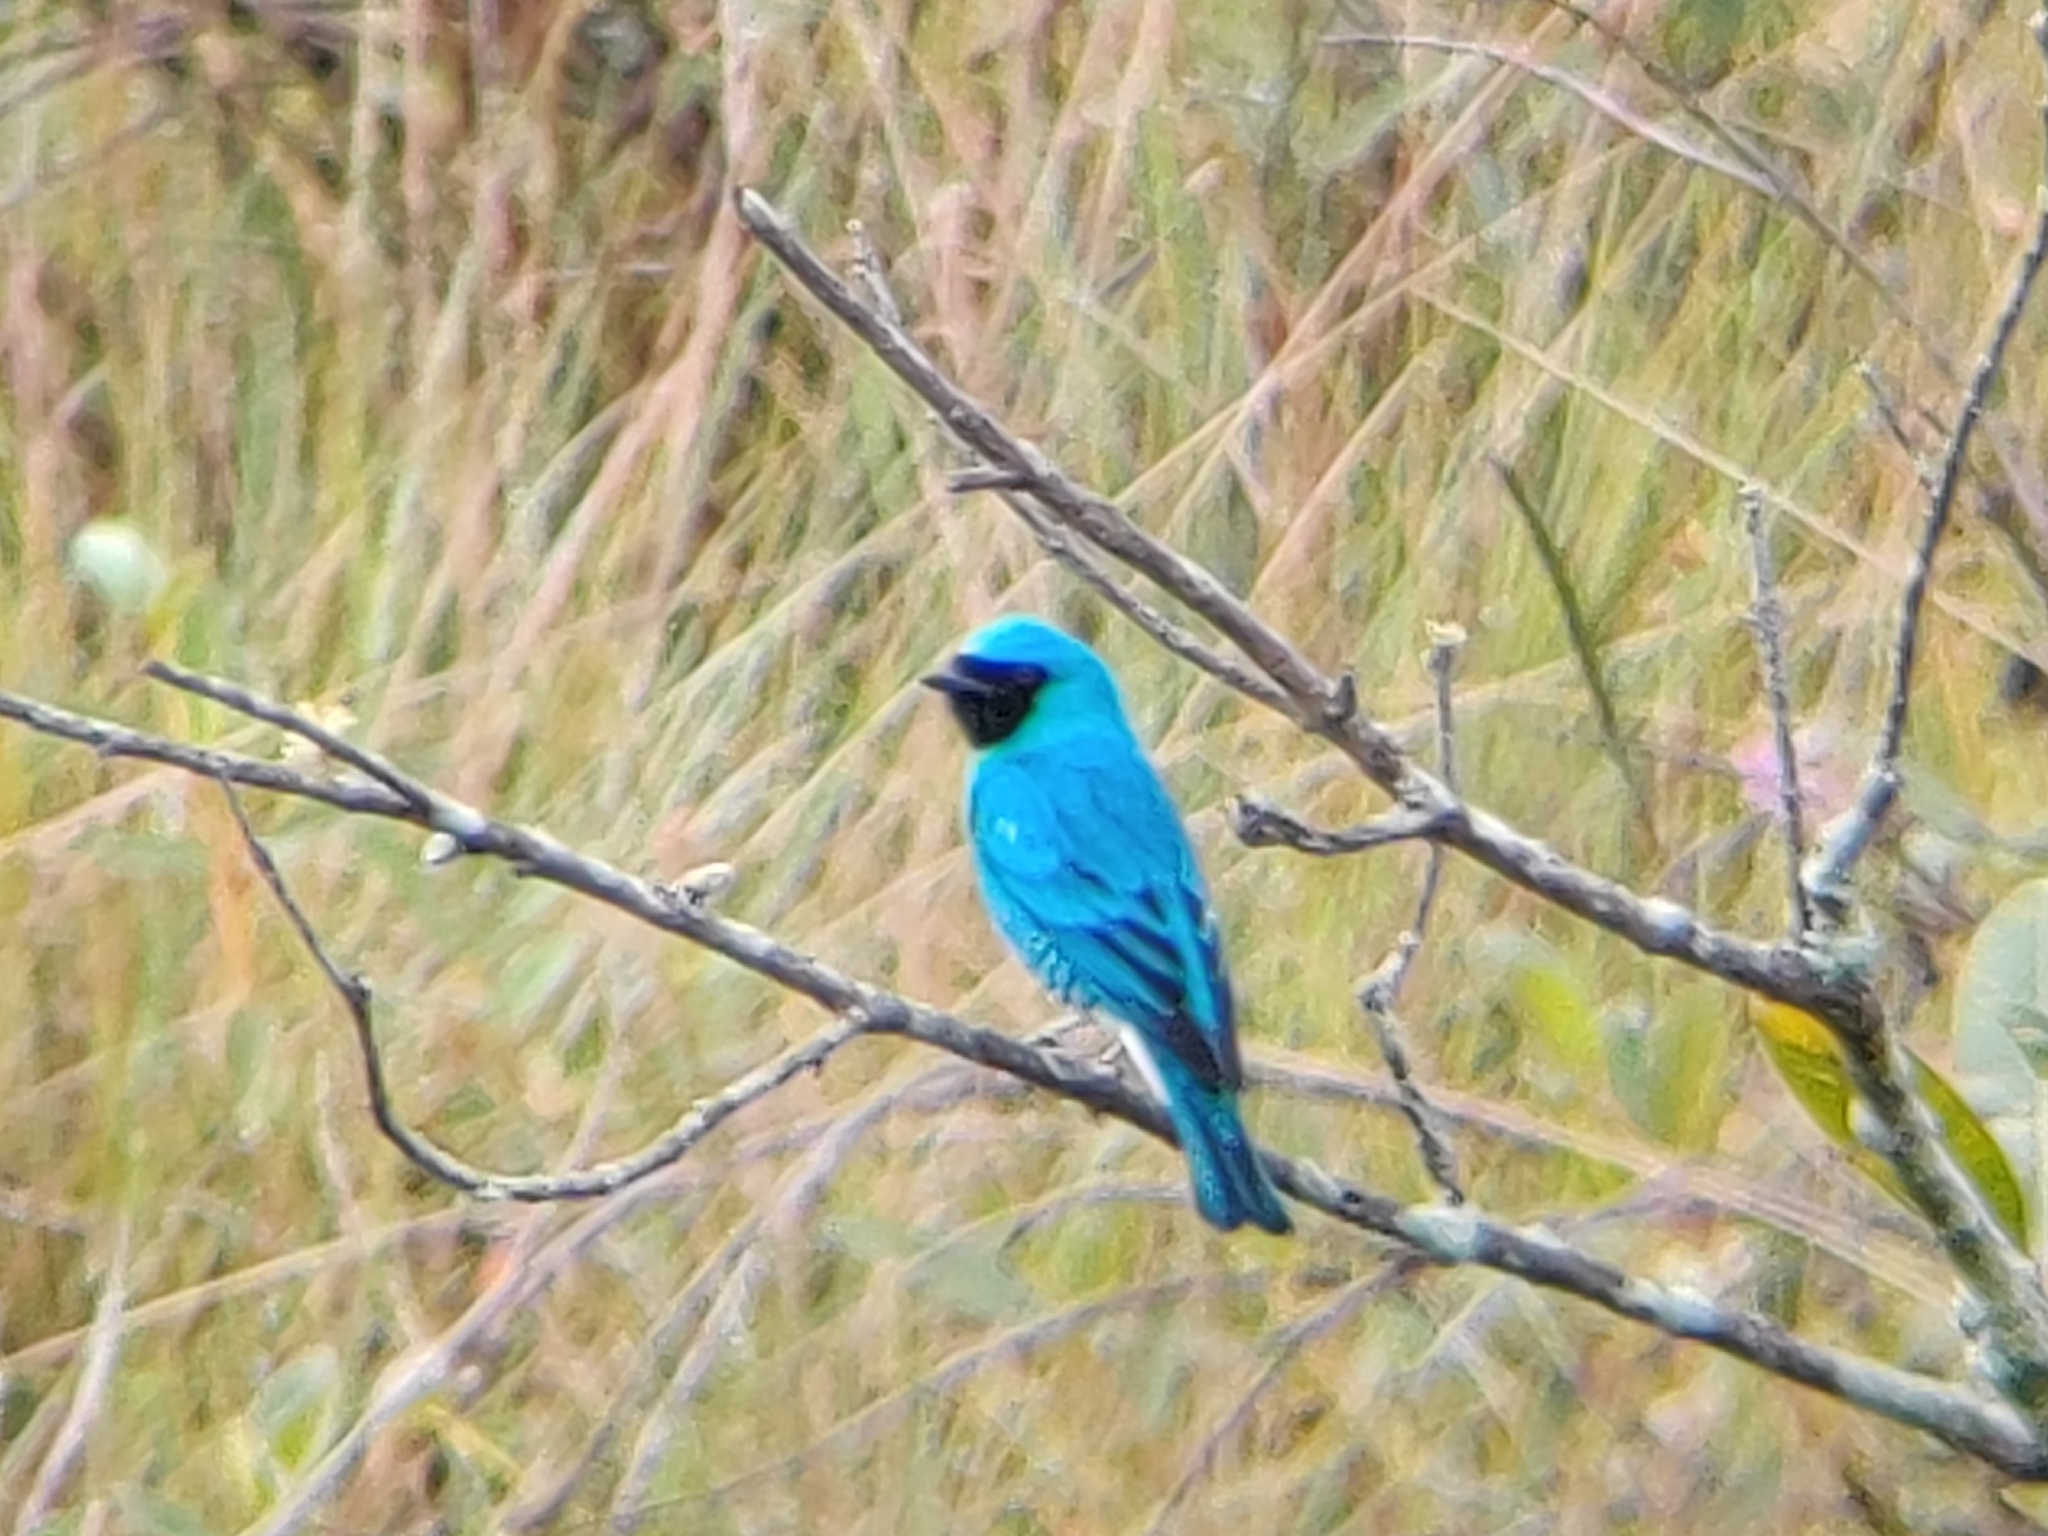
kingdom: Animalia
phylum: Chordata
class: Aves
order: Passeriformes
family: Thraupidae
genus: Tersina
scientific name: Tersina viridis
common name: Swallow tanager
